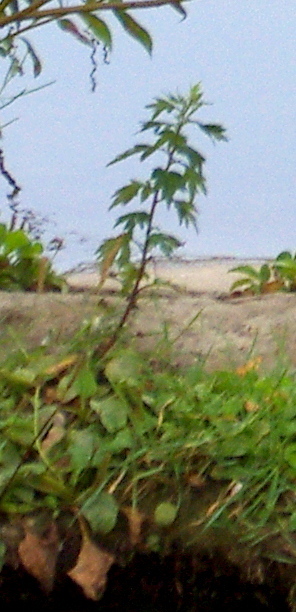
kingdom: Plantae
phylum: Tracheophyta
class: Magnoliopsida
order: Asterales
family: Asteraceae
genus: Artemisia
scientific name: Artemisia vulgaris
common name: Mugwort
